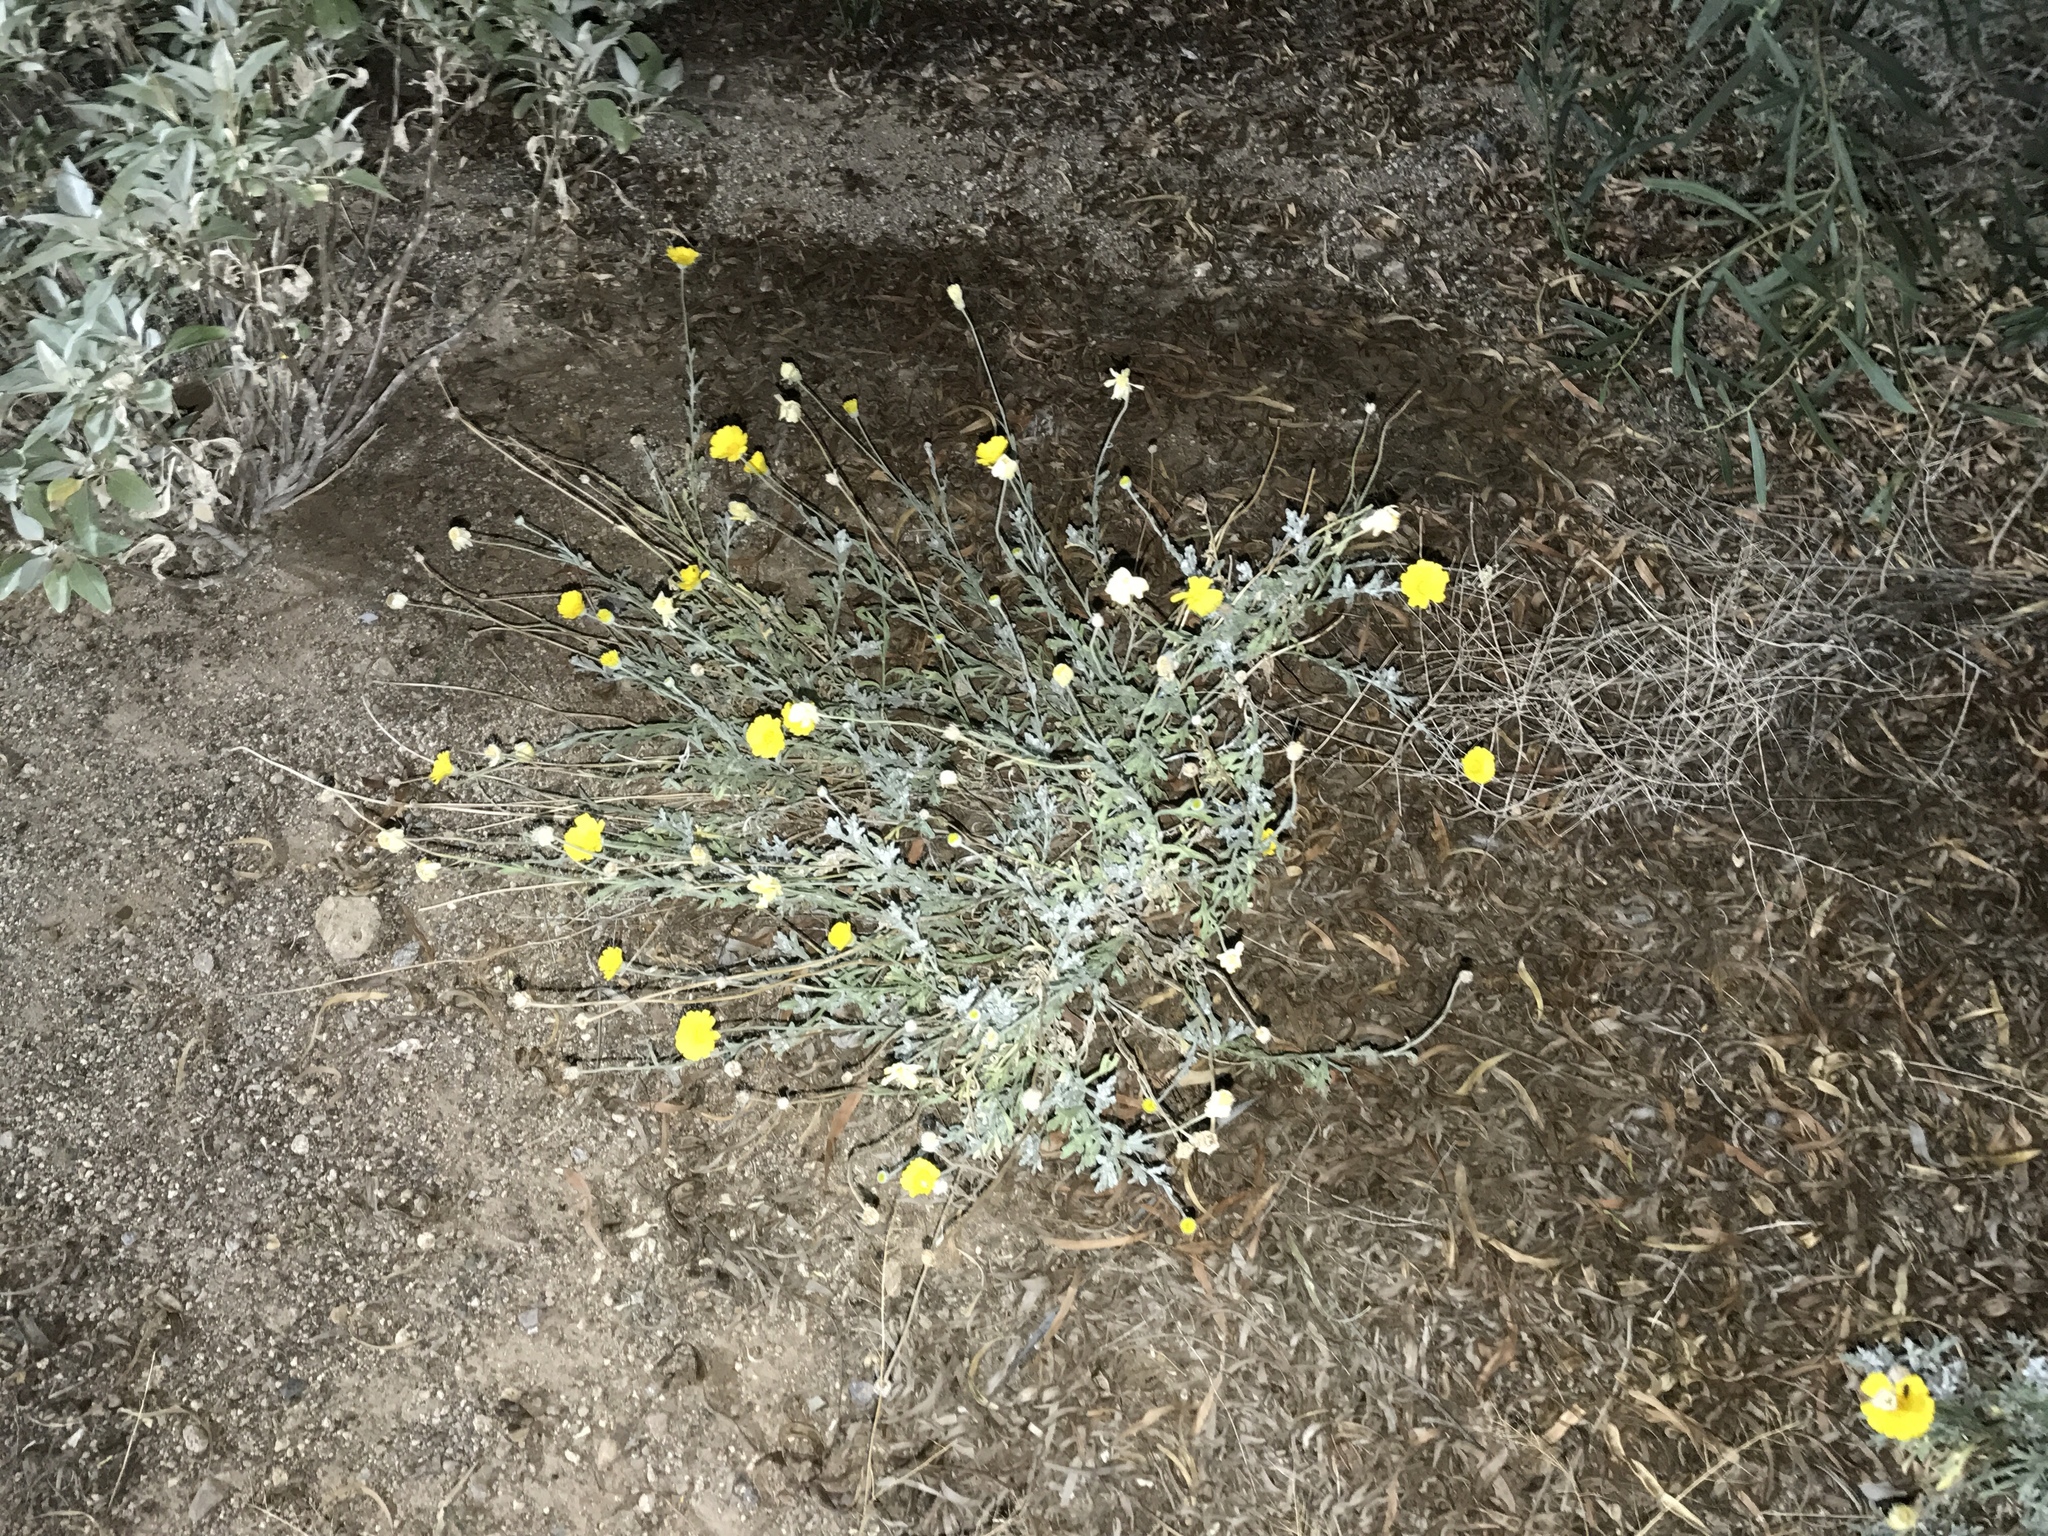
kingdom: Plantae
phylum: Tracheophyta
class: Magnoliopsida
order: Asterales
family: Asteraceae
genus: Baileya
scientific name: Baileya multiradiata
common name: Desert-marigold
